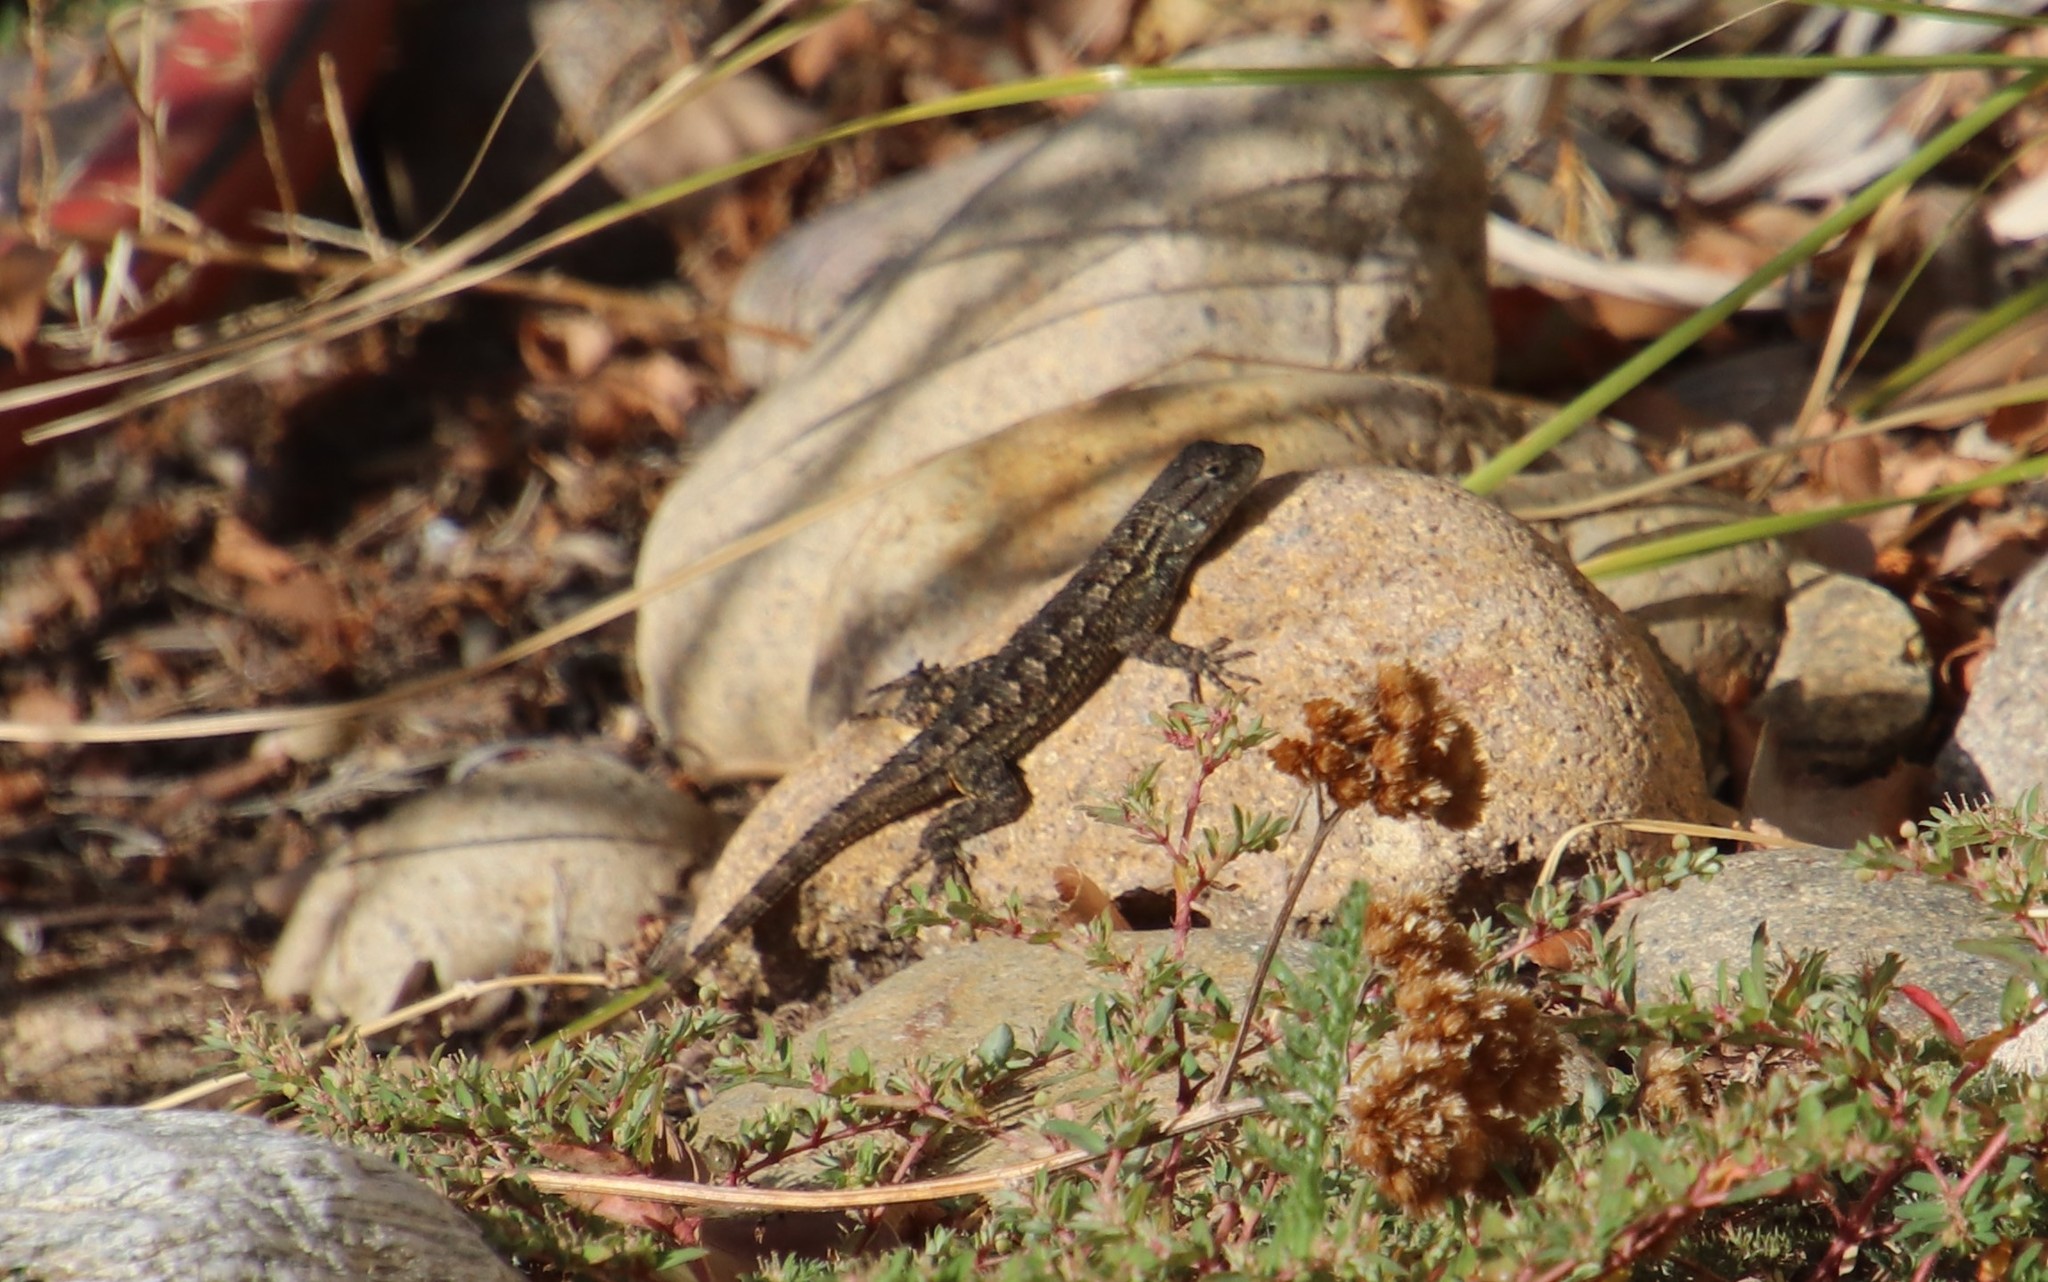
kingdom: Animalia
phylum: Chordata
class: Squamata
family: Phrynosomatidae
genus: Sceloporus
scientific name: Sceloporus occidentalis
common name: Western fence lizard
